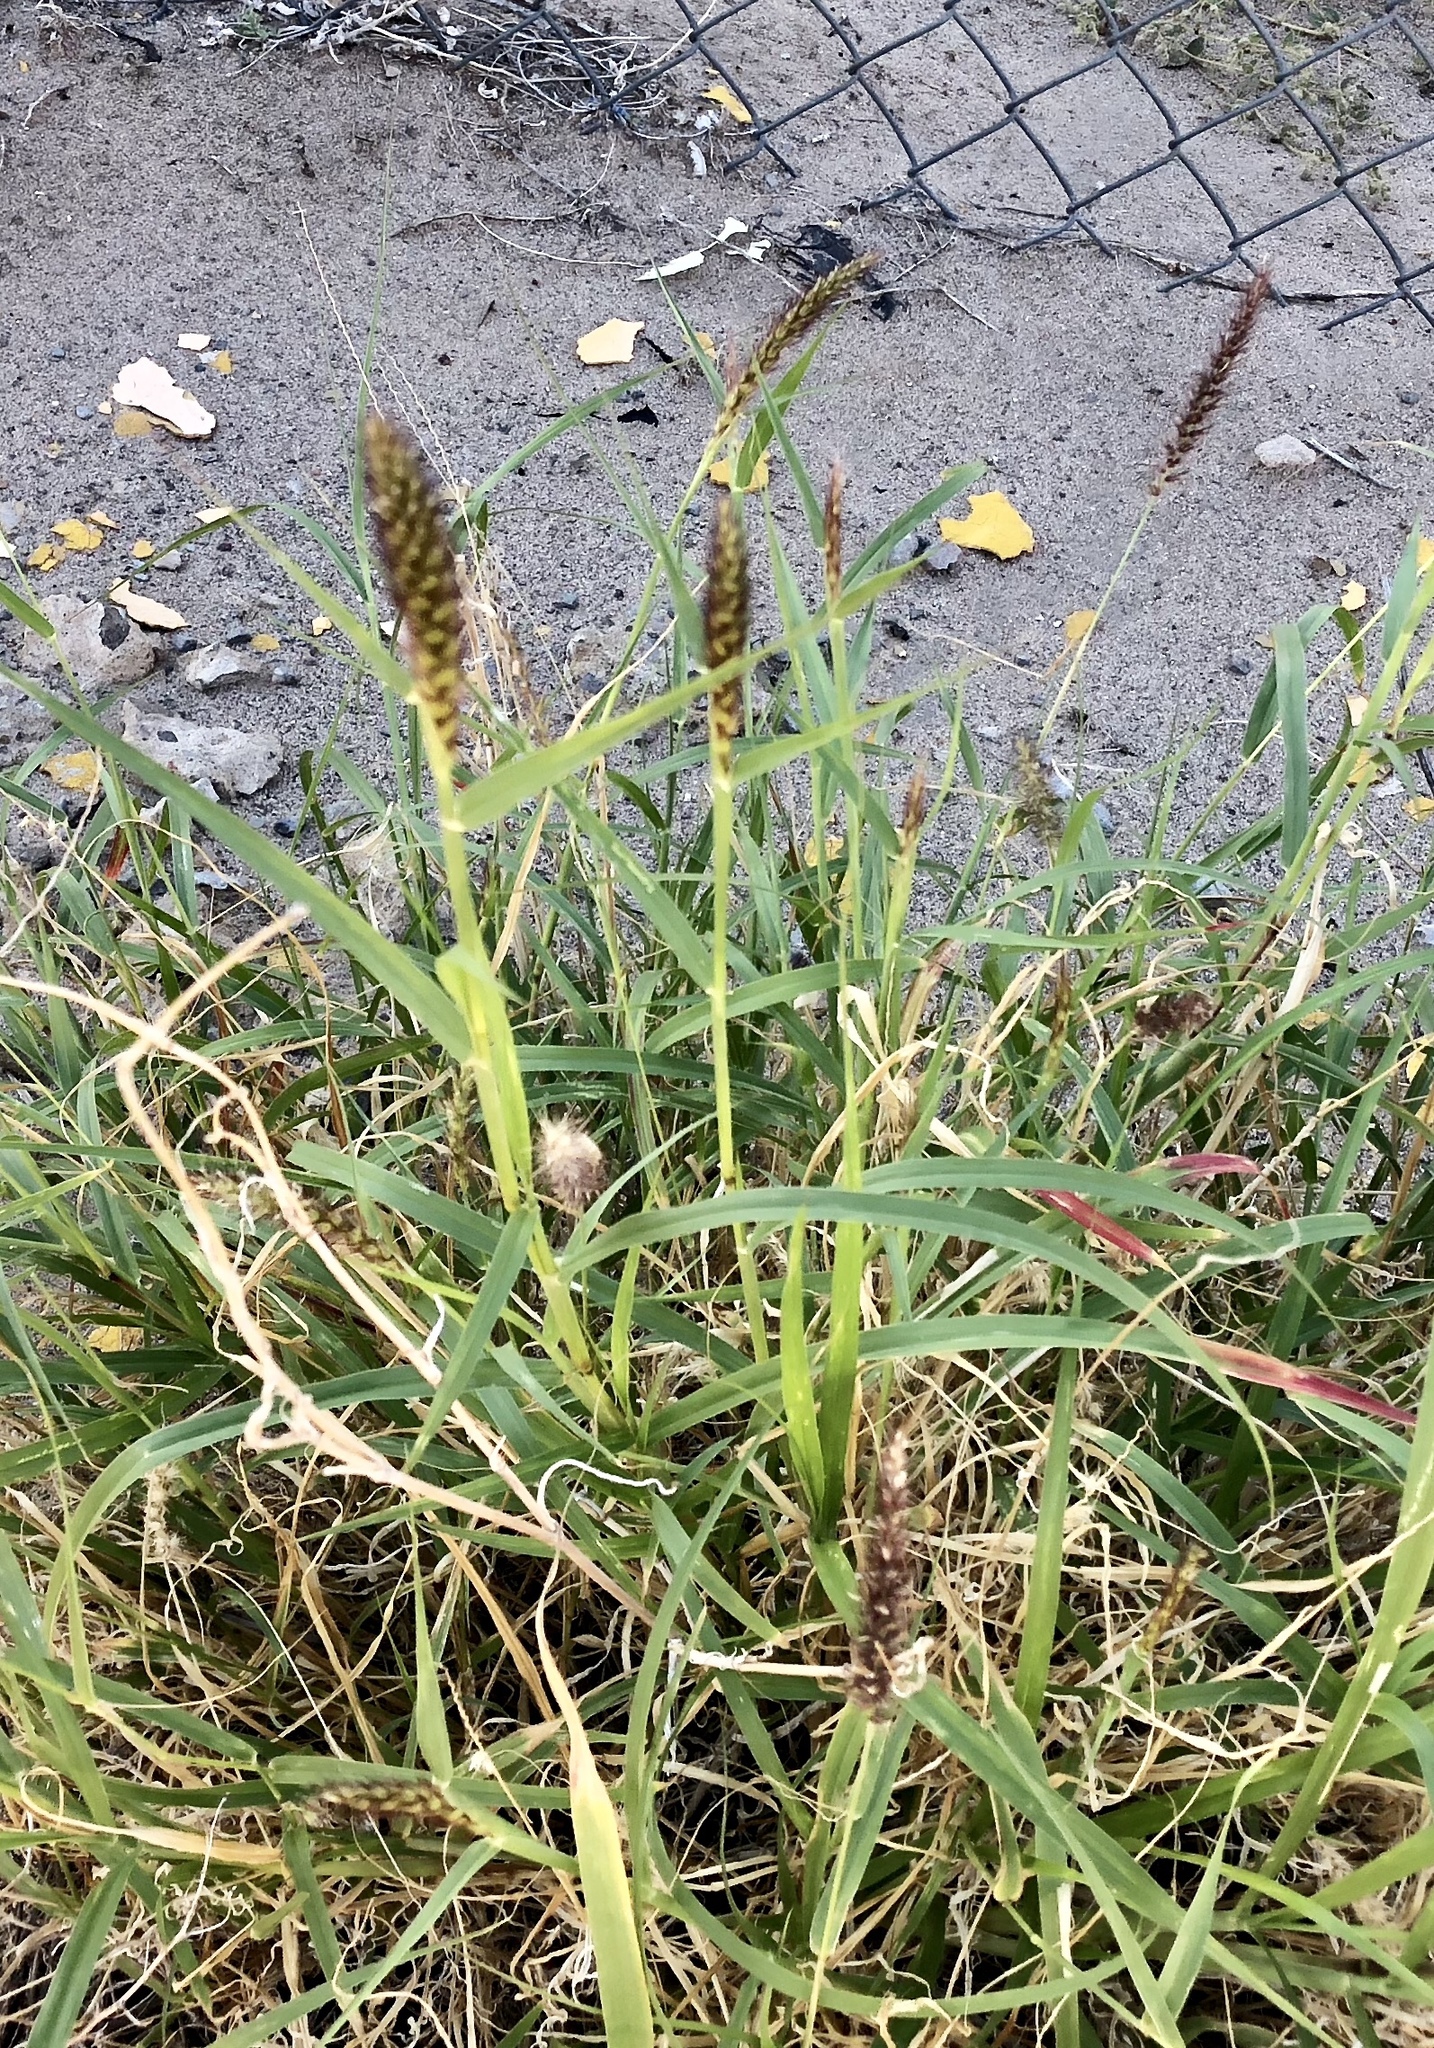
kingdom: Plantae
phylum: Tracheophyta
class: Liliopsida
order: Poales
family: Poaceae
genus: Cenchrus
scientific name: Cenchrus ciliaris
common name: Buffelgrass
